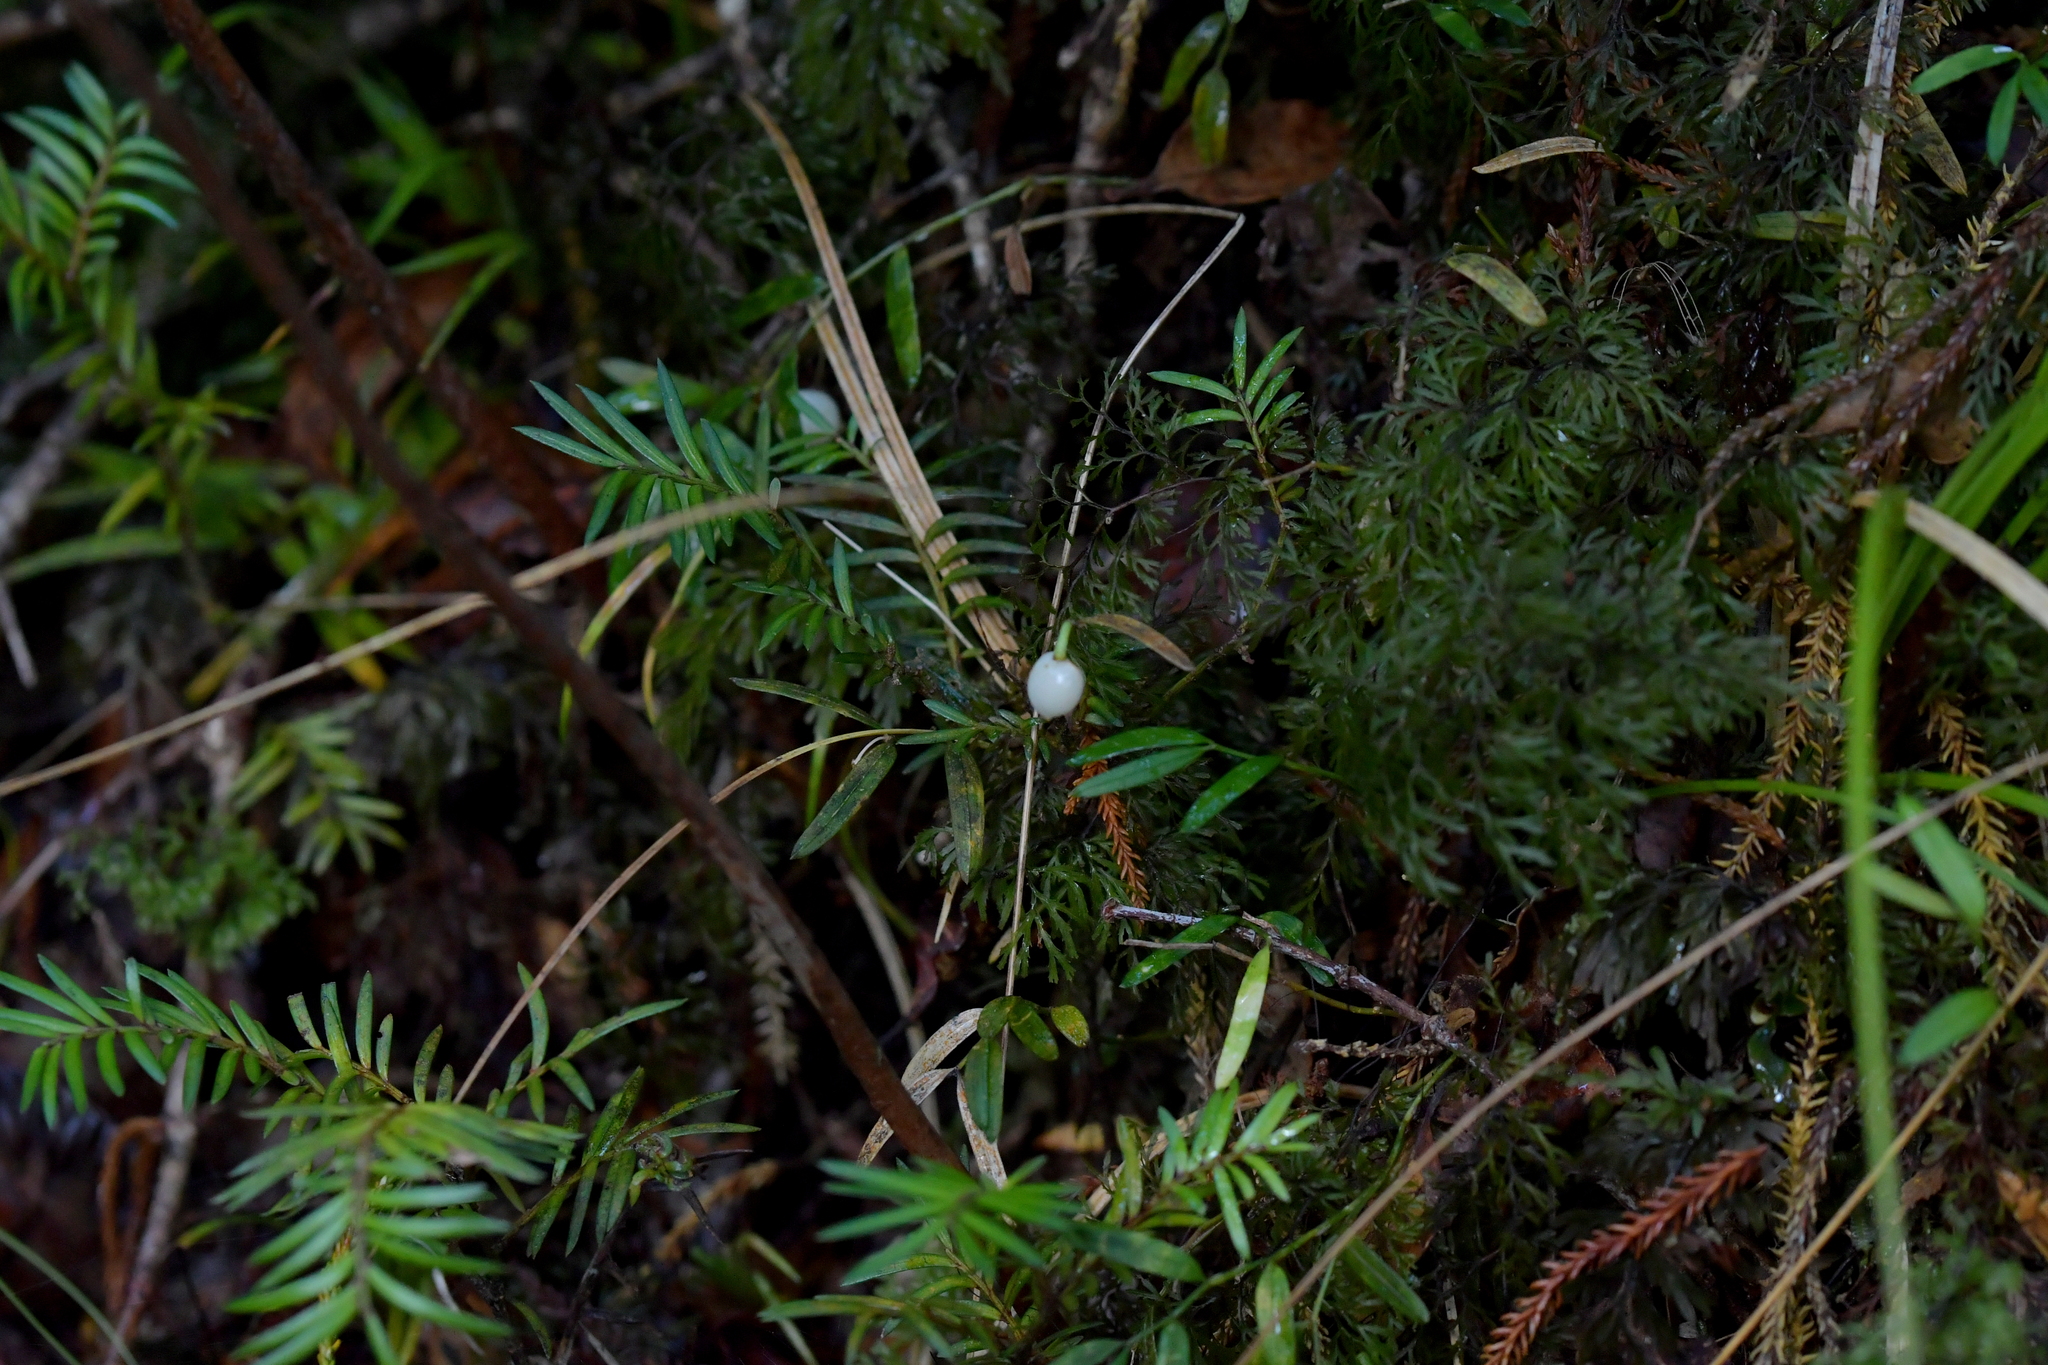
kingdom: Plantae
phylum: Tracheophyta
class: Liliopsida
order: Liliales
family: Alstroemeriaceae
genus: Luzuriaga
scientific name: Luzuriaga parviflora
